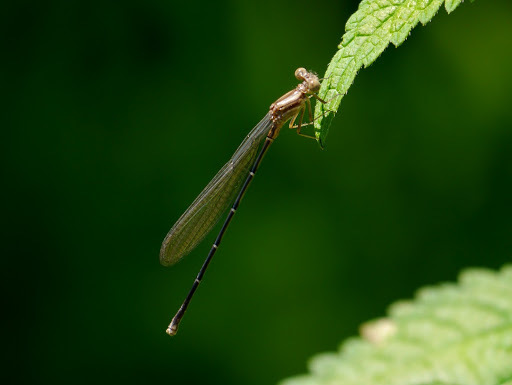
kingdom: Animalia
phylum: Arthropoda
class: Insecta
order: Odonata
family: Coenagrionidae
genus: Argia
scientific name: Argia moesta
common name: Powdered dancer
